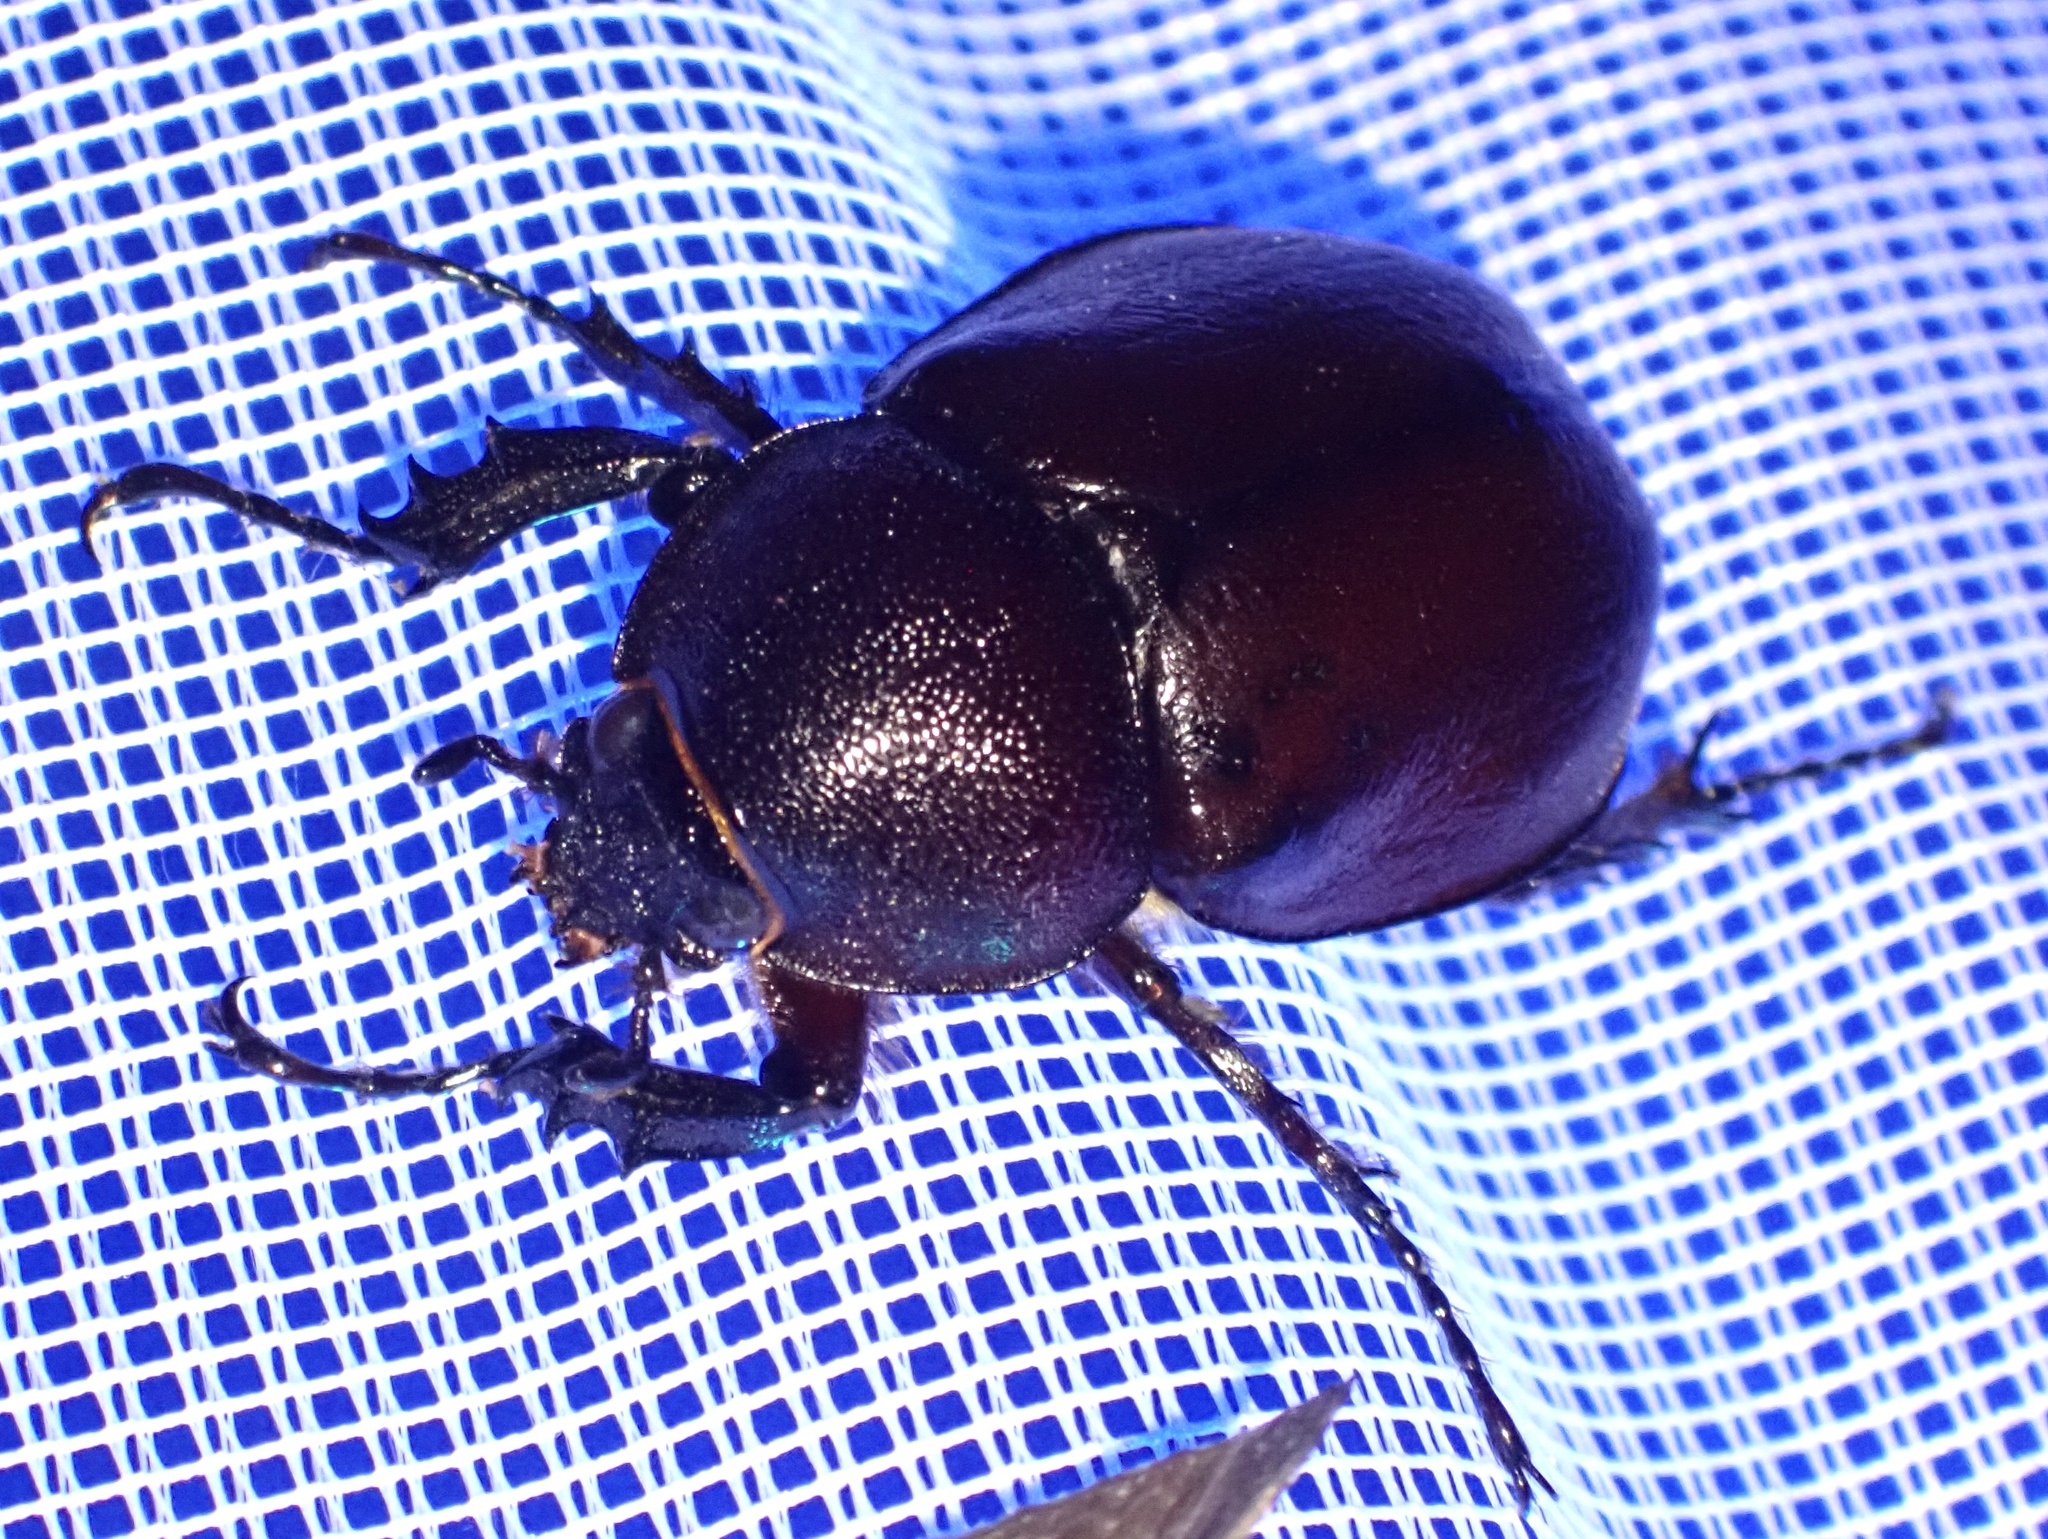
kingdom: Animalia
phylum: Arthropoda
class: Insecta
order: Coleoptera
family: Scarabaeidae
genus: Xylotrupes
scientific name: Xylotrupes carinulus
